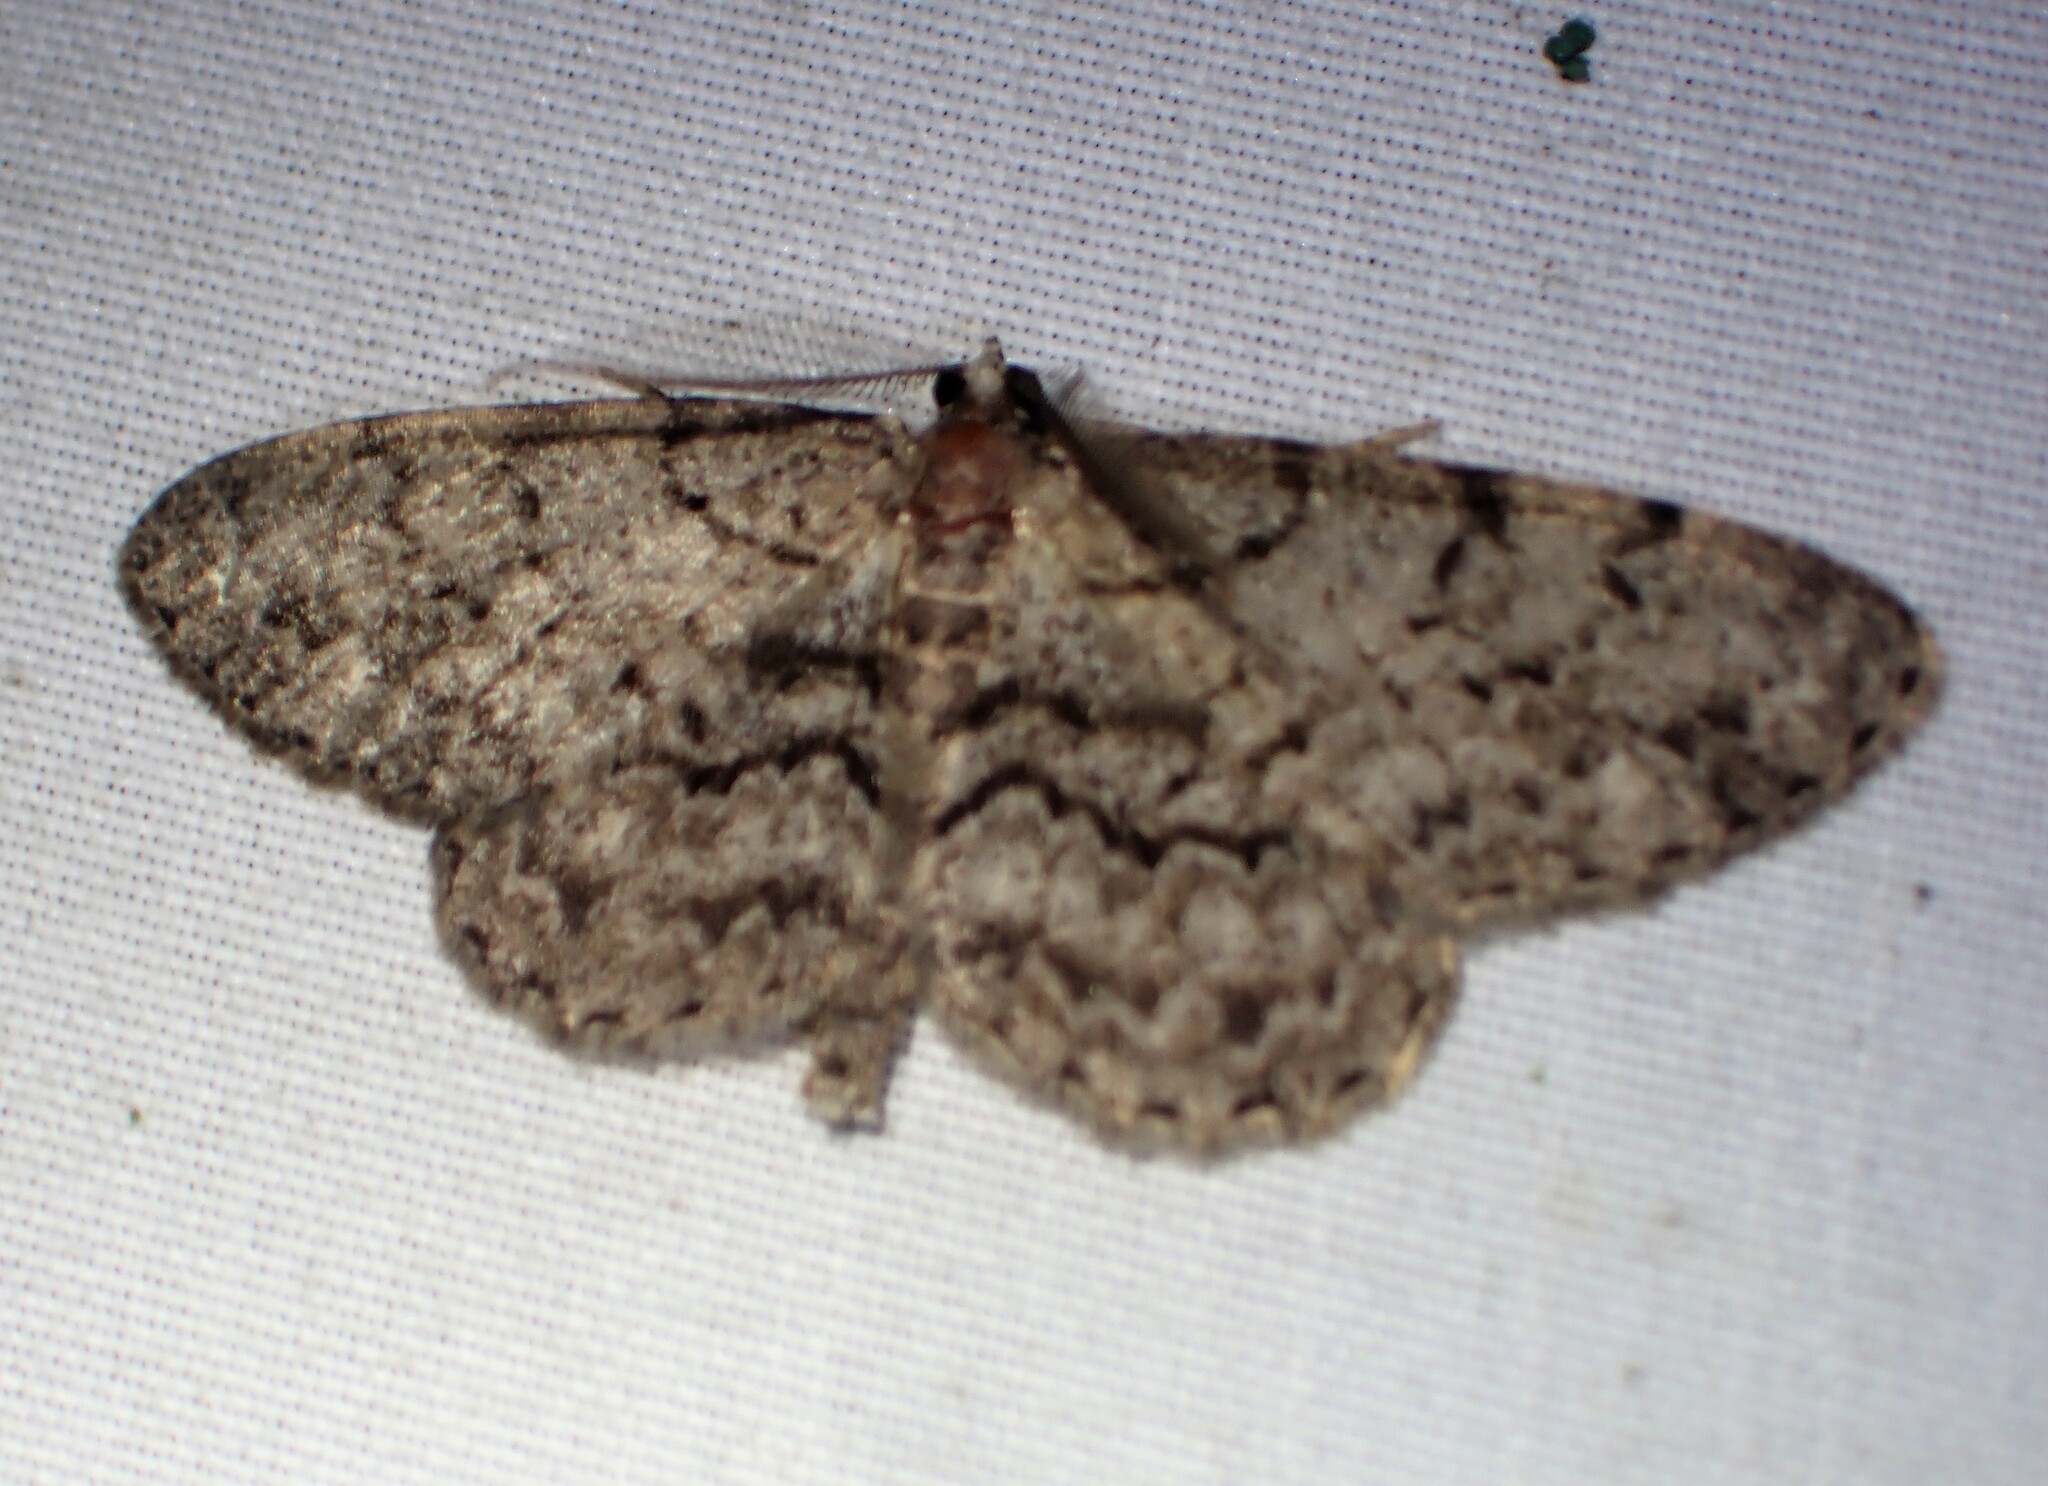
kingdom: Animalia
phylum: Arthropoda
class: Insecta
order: Lepidoptera
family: Geometridae
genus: Protoboarmia
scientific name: Protoboarmia porcelaria
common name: Porcelain gray
